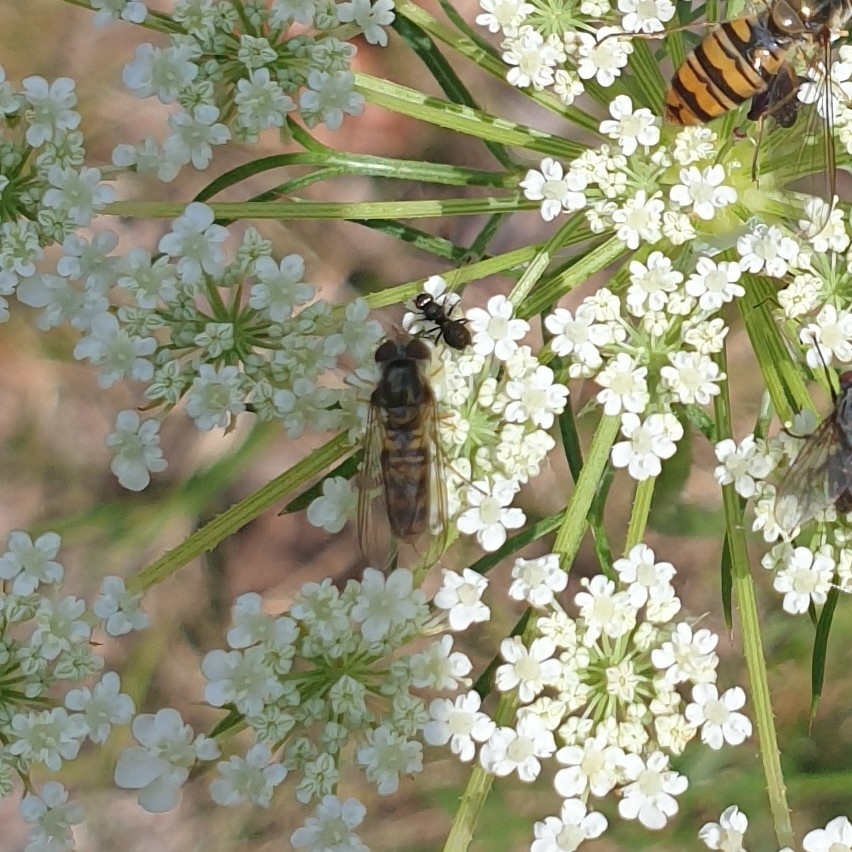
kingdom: Animalia
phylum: Arthropoda
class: Insecta
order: Diptera
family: Syrphidae
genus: Episyrphus
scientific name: Episyrphus balteatus
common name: Marmalade hoverfly
